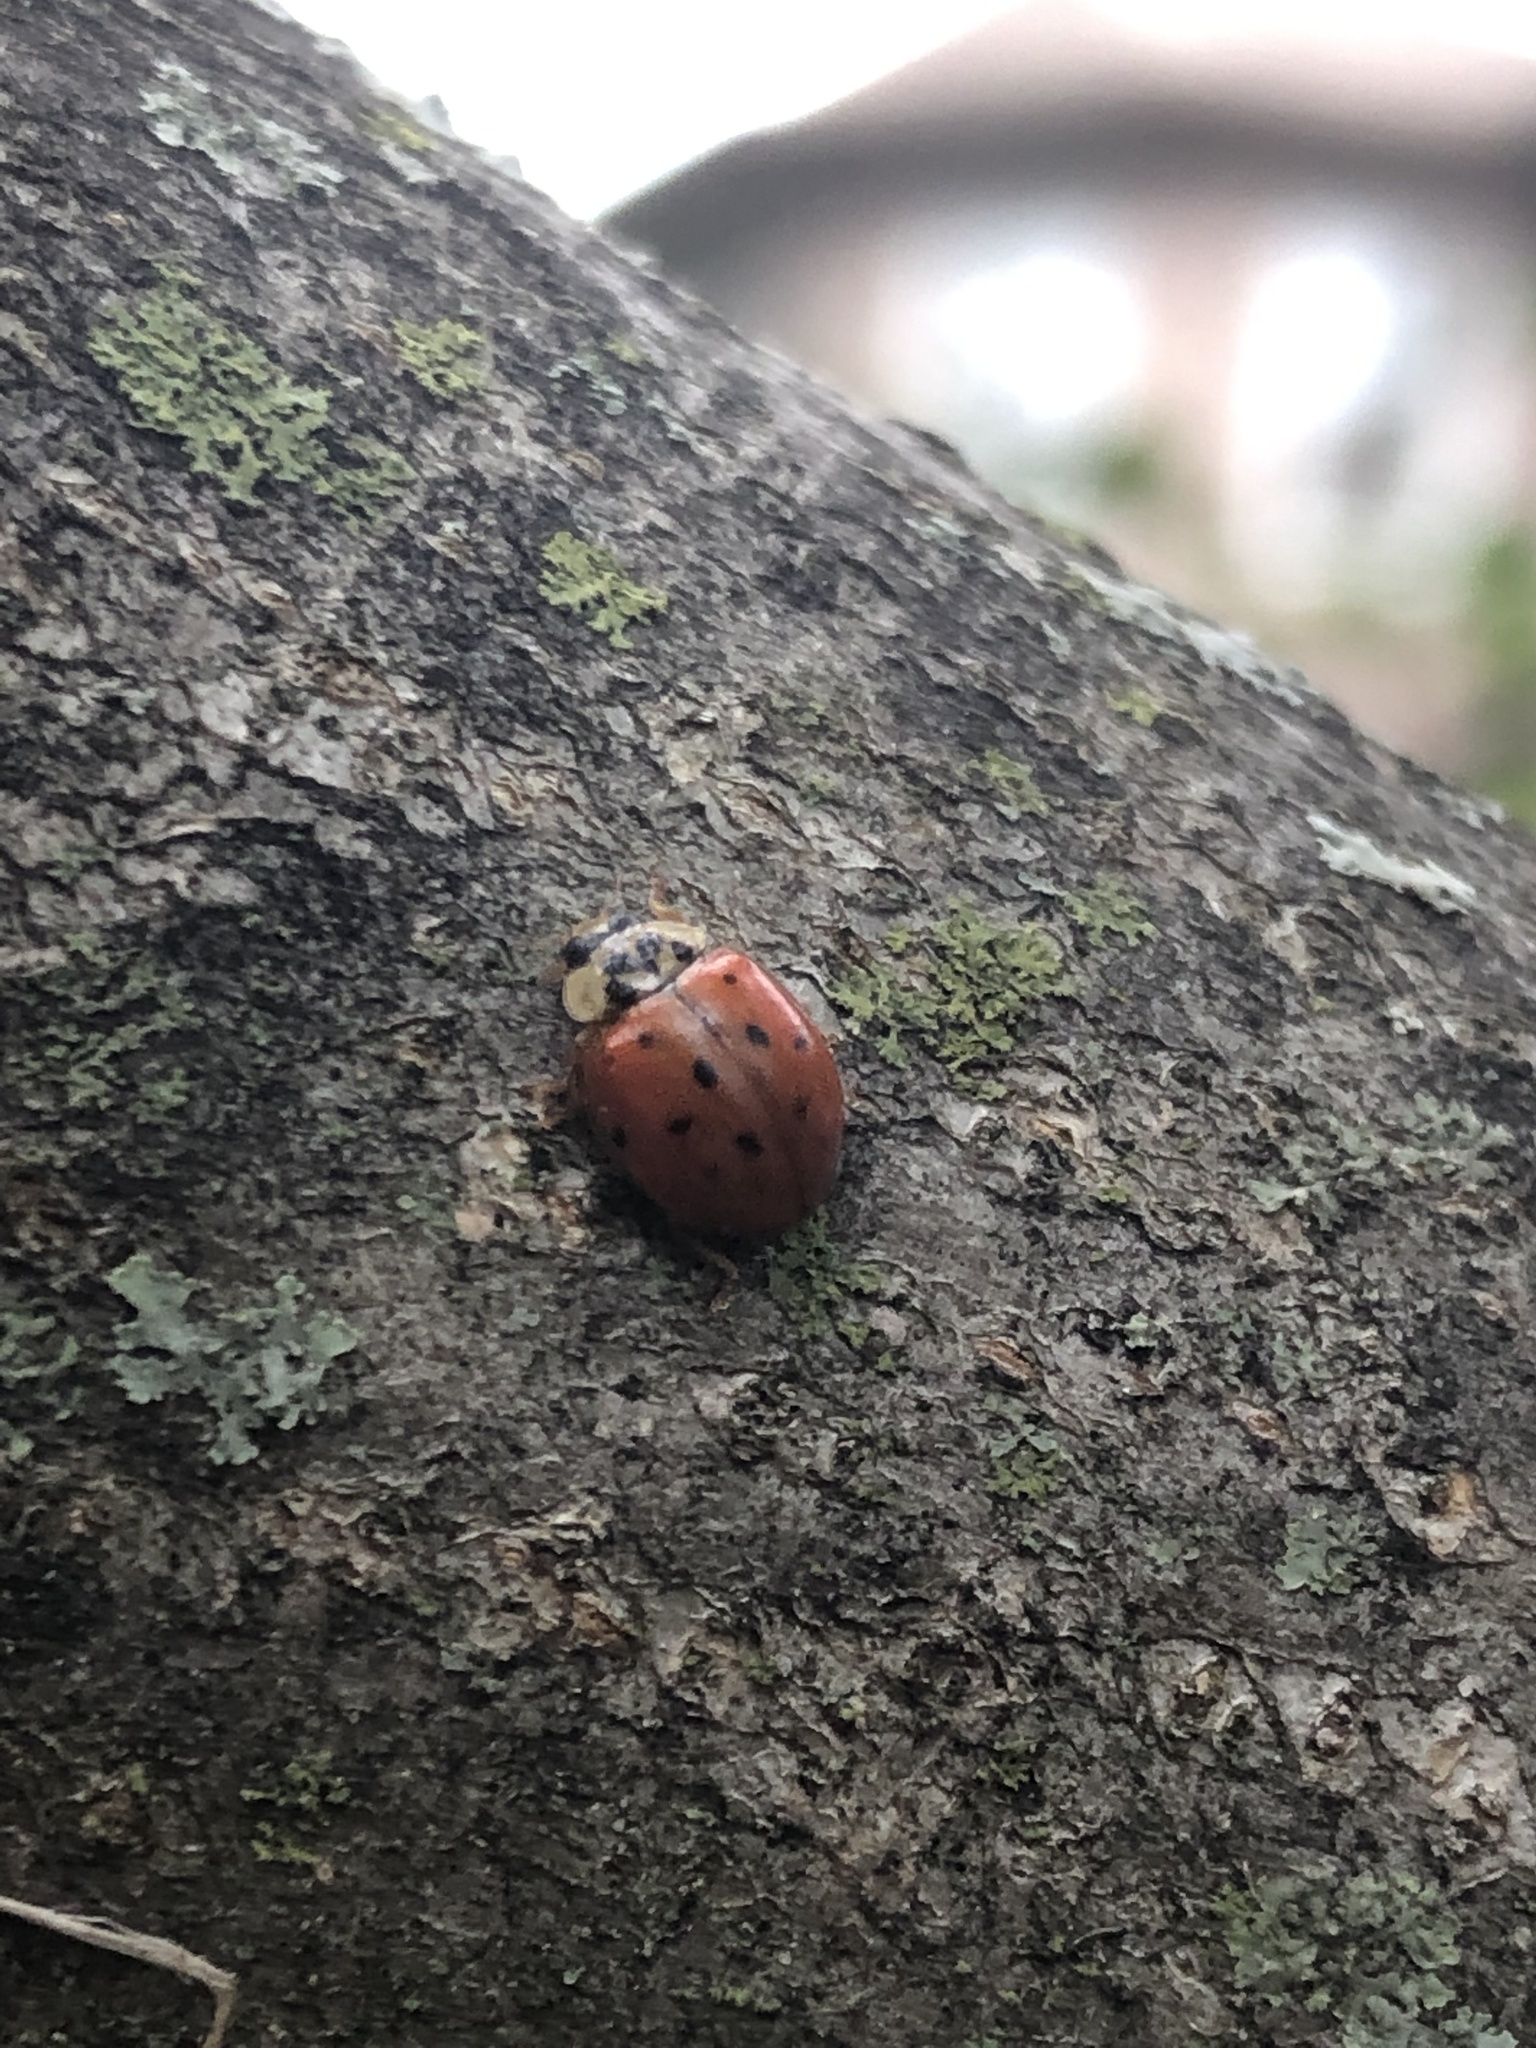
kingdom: Animalia
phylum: Arthropoda
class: Insecta
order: Coleoptera
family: Coccinellidae
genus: Harmonia
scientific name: Harmonia axyridis
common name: Harlequin ladybird
